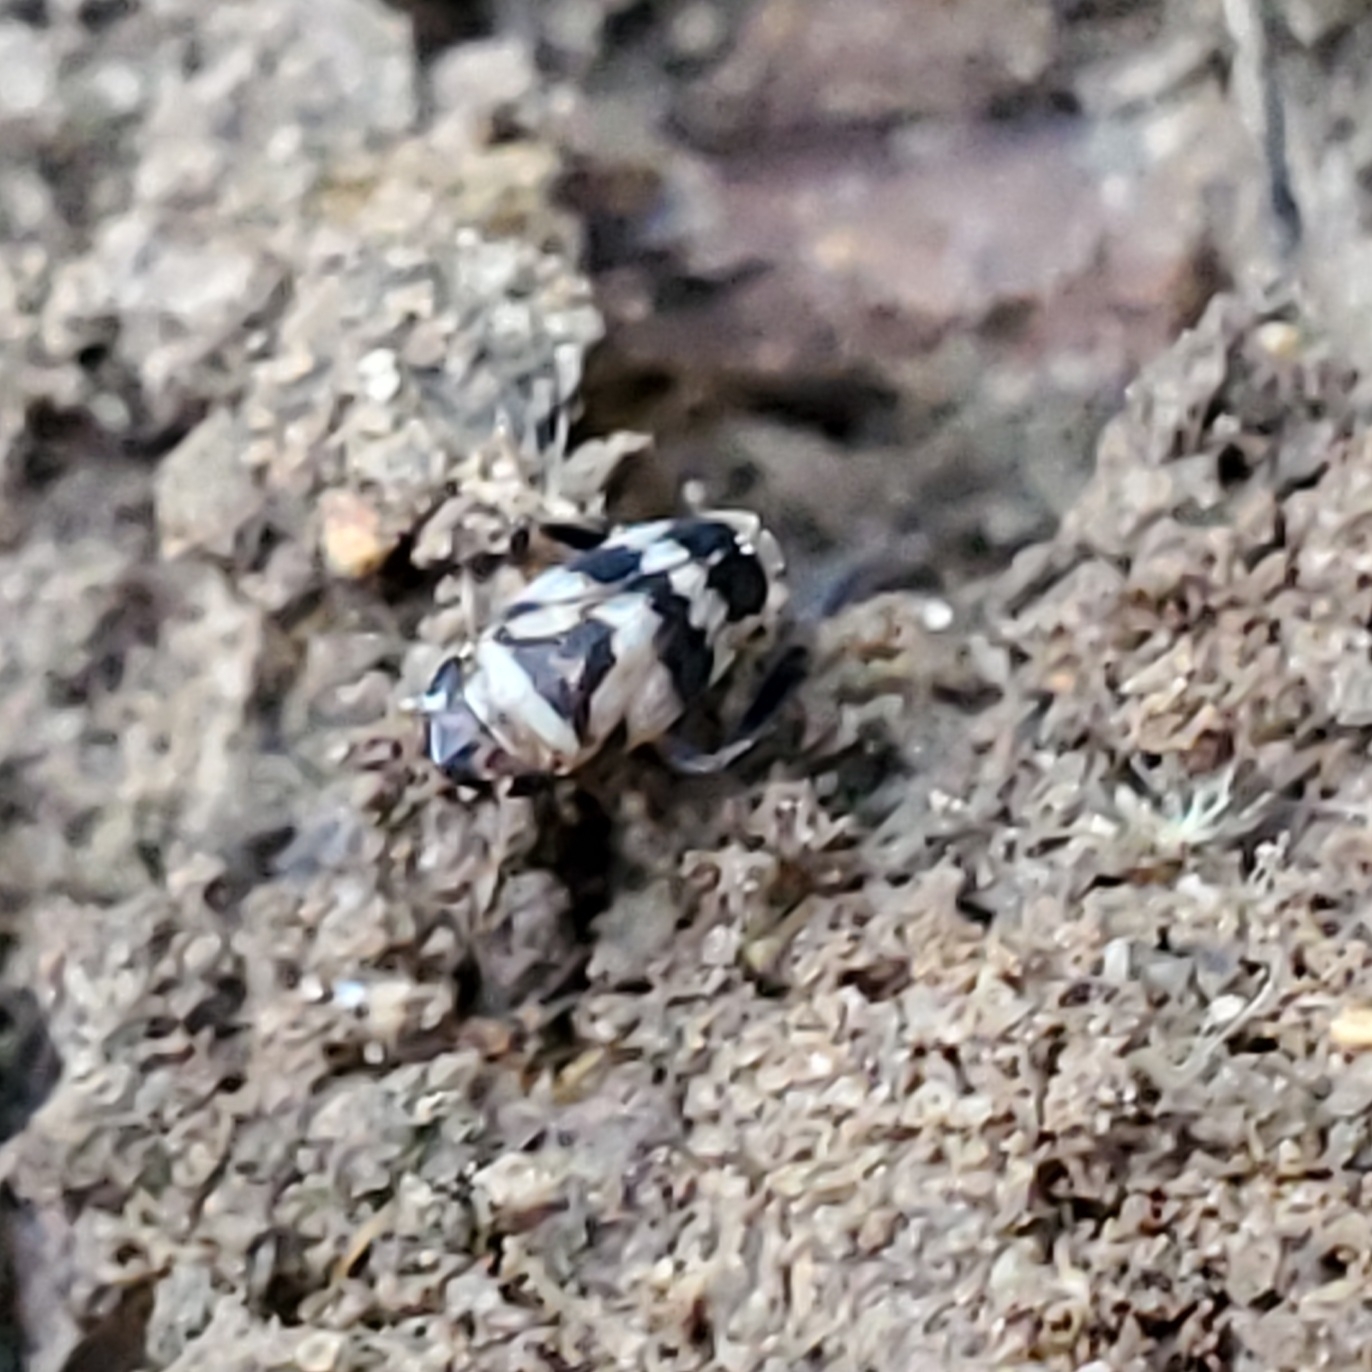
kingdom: Animalia
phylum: Arthropoda
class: Insecta
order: Hemiptera
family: Cicadellidae
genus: Anoscopus
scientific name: Anoscopus serratulae
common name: Leafhopper
